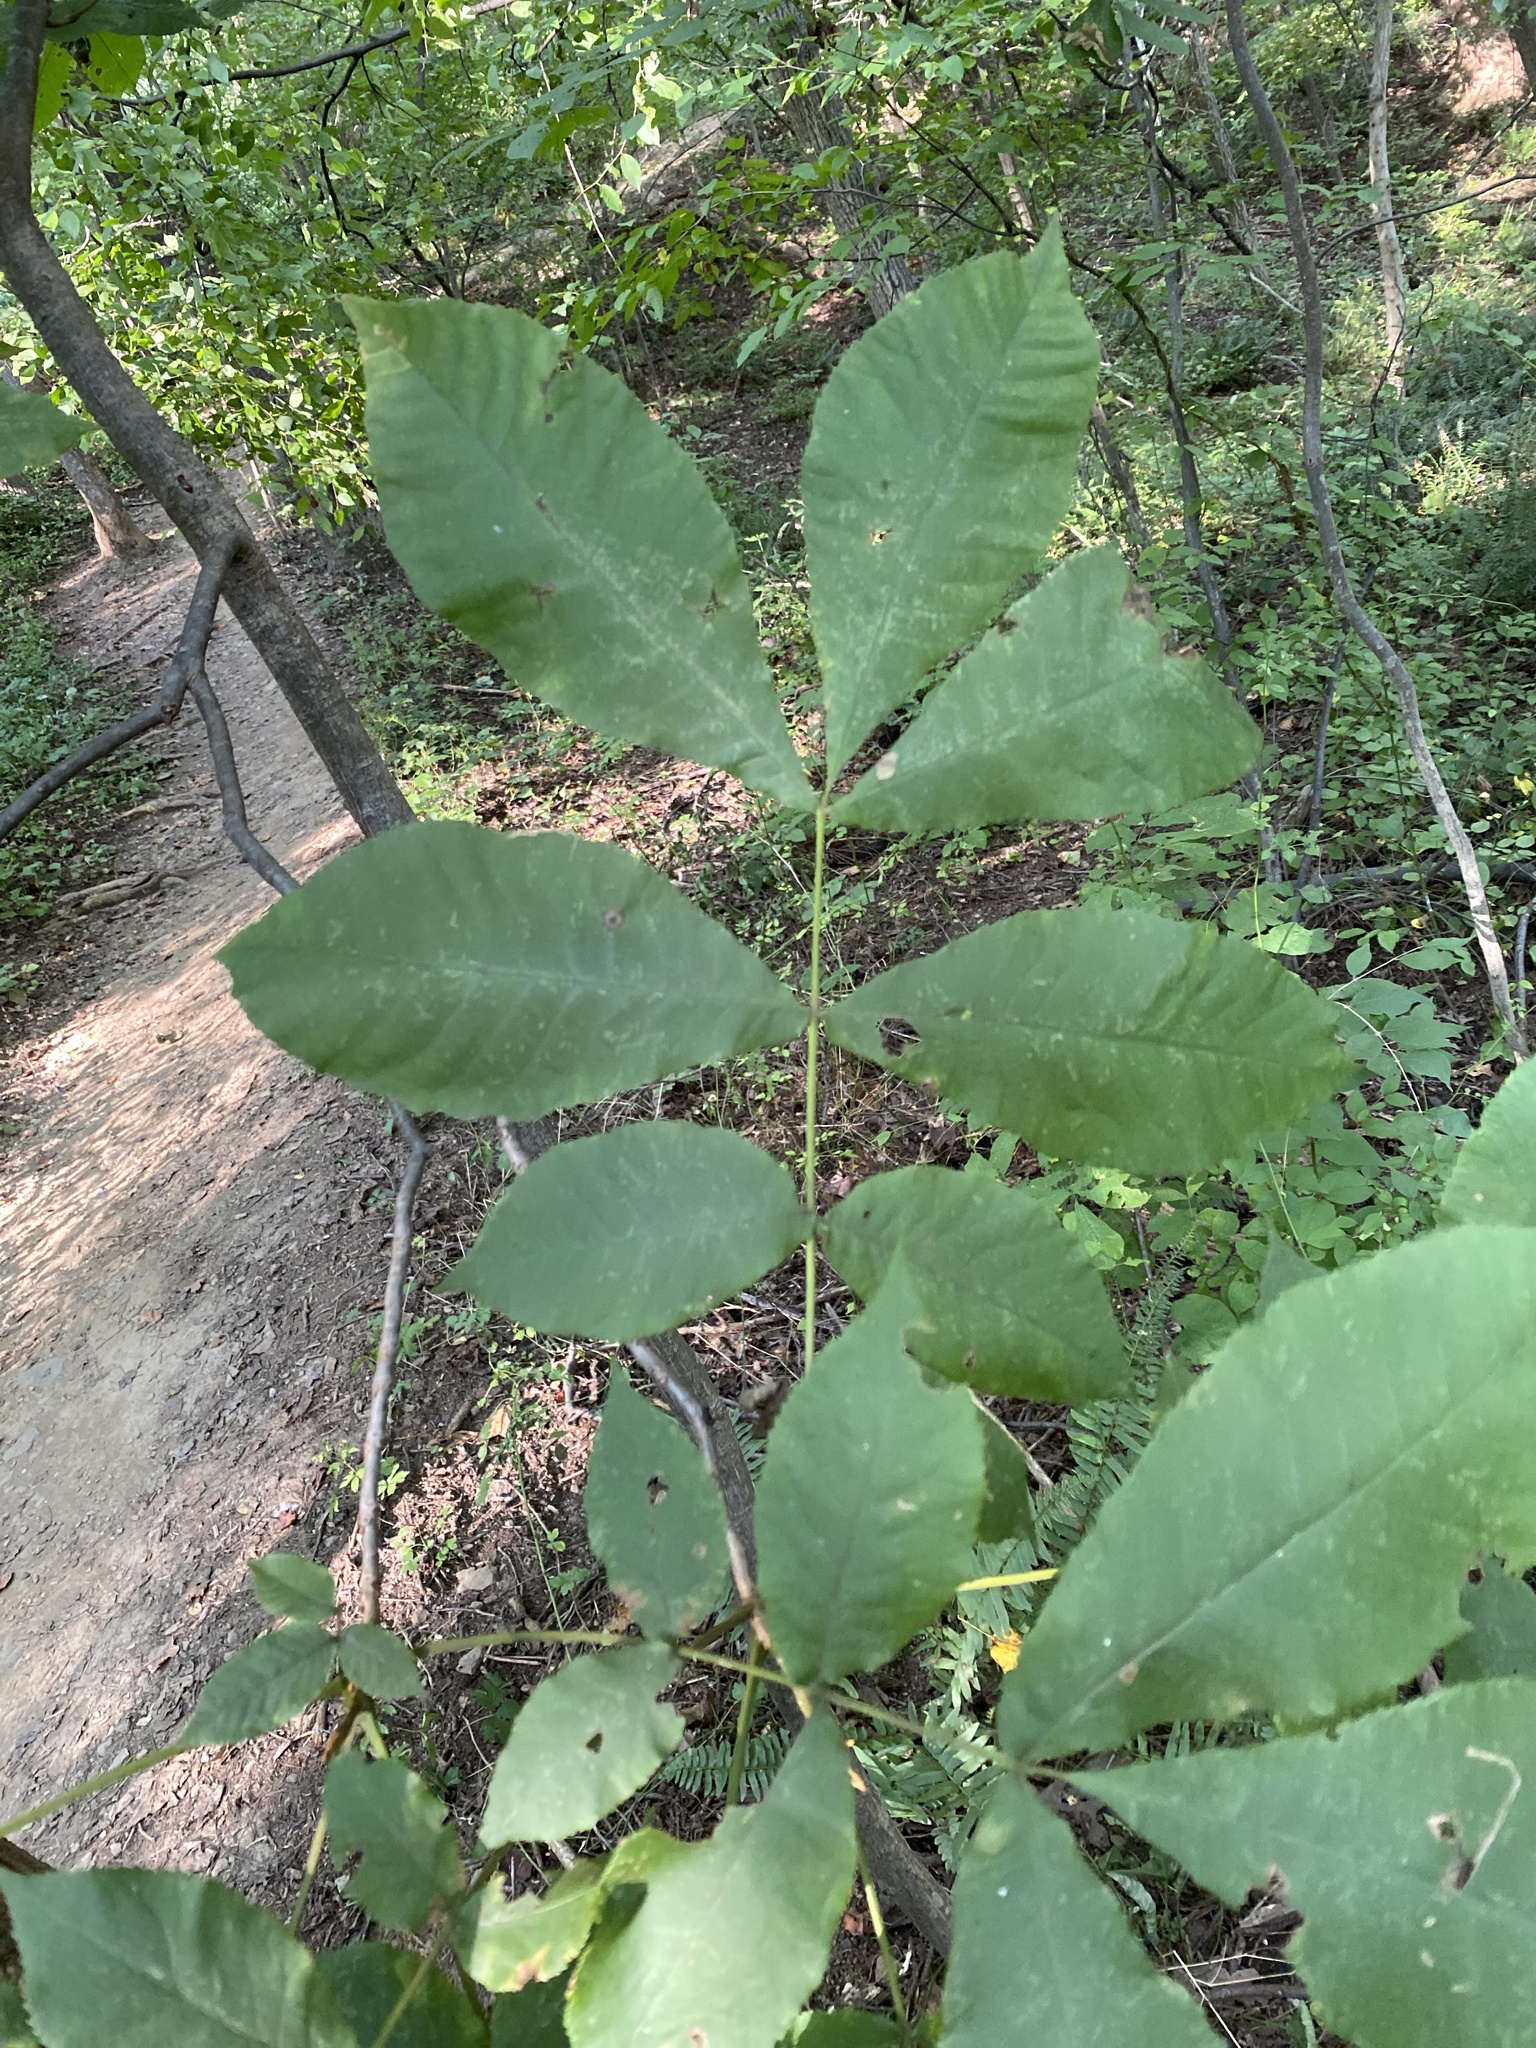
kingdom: Plantae
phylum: Tracheophyta
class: Magnoliopsida
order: Fagales
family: Juglandaceae
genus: Carya
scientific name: Carya cordiformis
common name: Bitternut hickory
